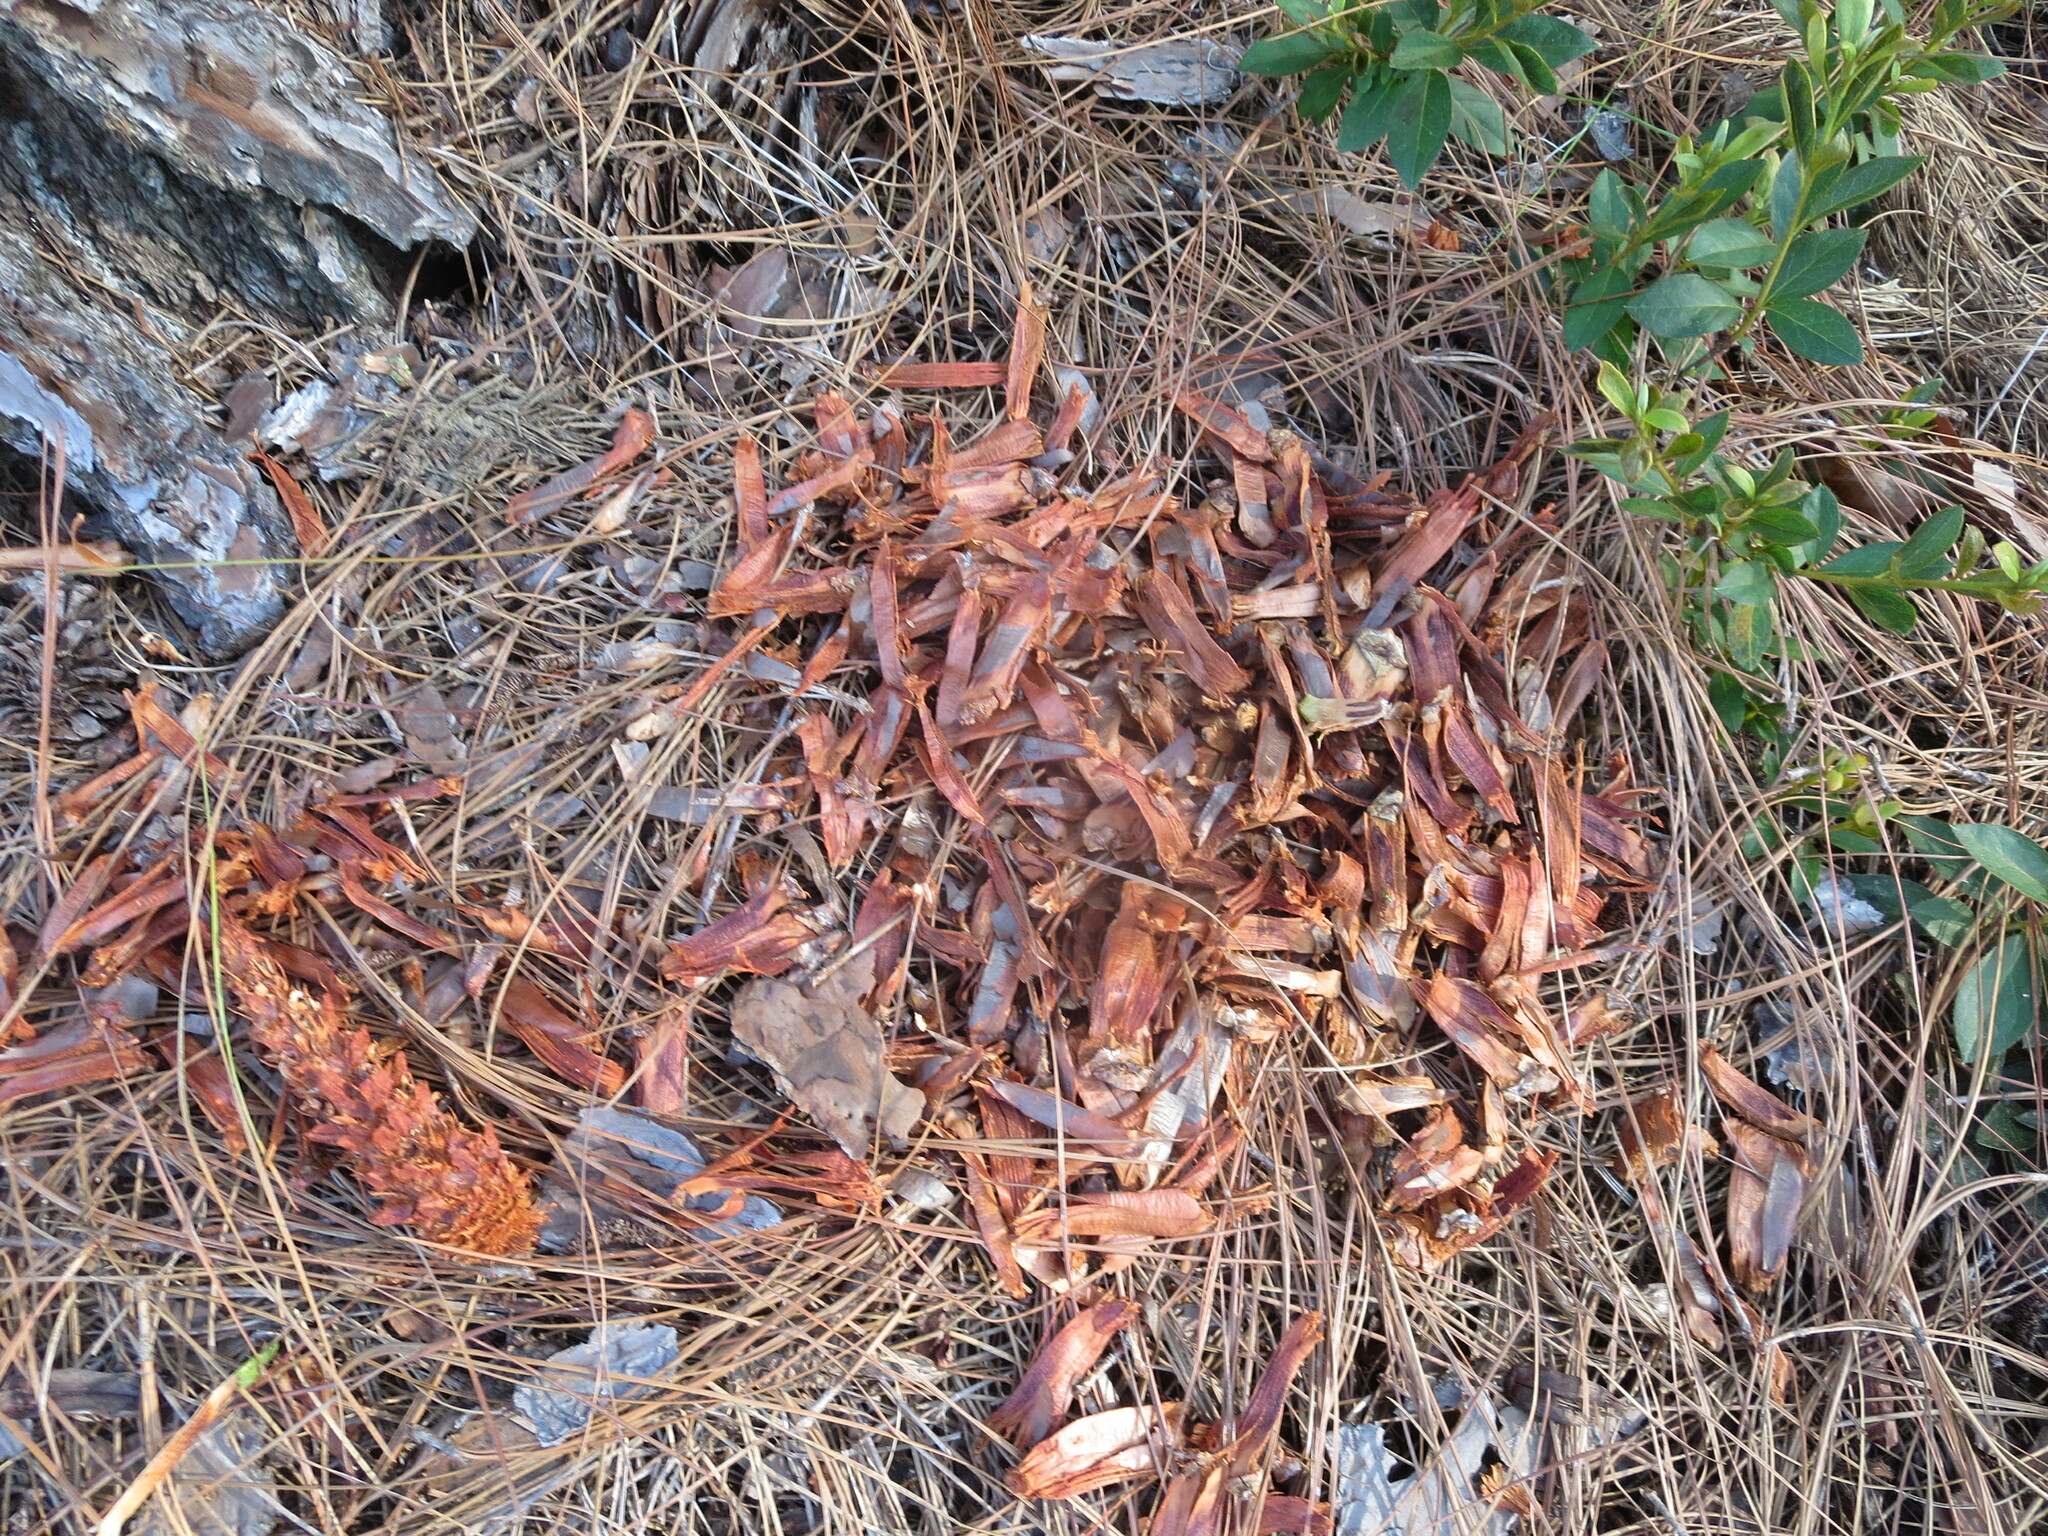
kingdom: Animalia
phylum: Chordata
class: Mammalia
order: Rodentia
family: Sciuridae
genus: Sciurus
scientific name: Sciurus carolinensis
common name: Eastern gray squirrel
